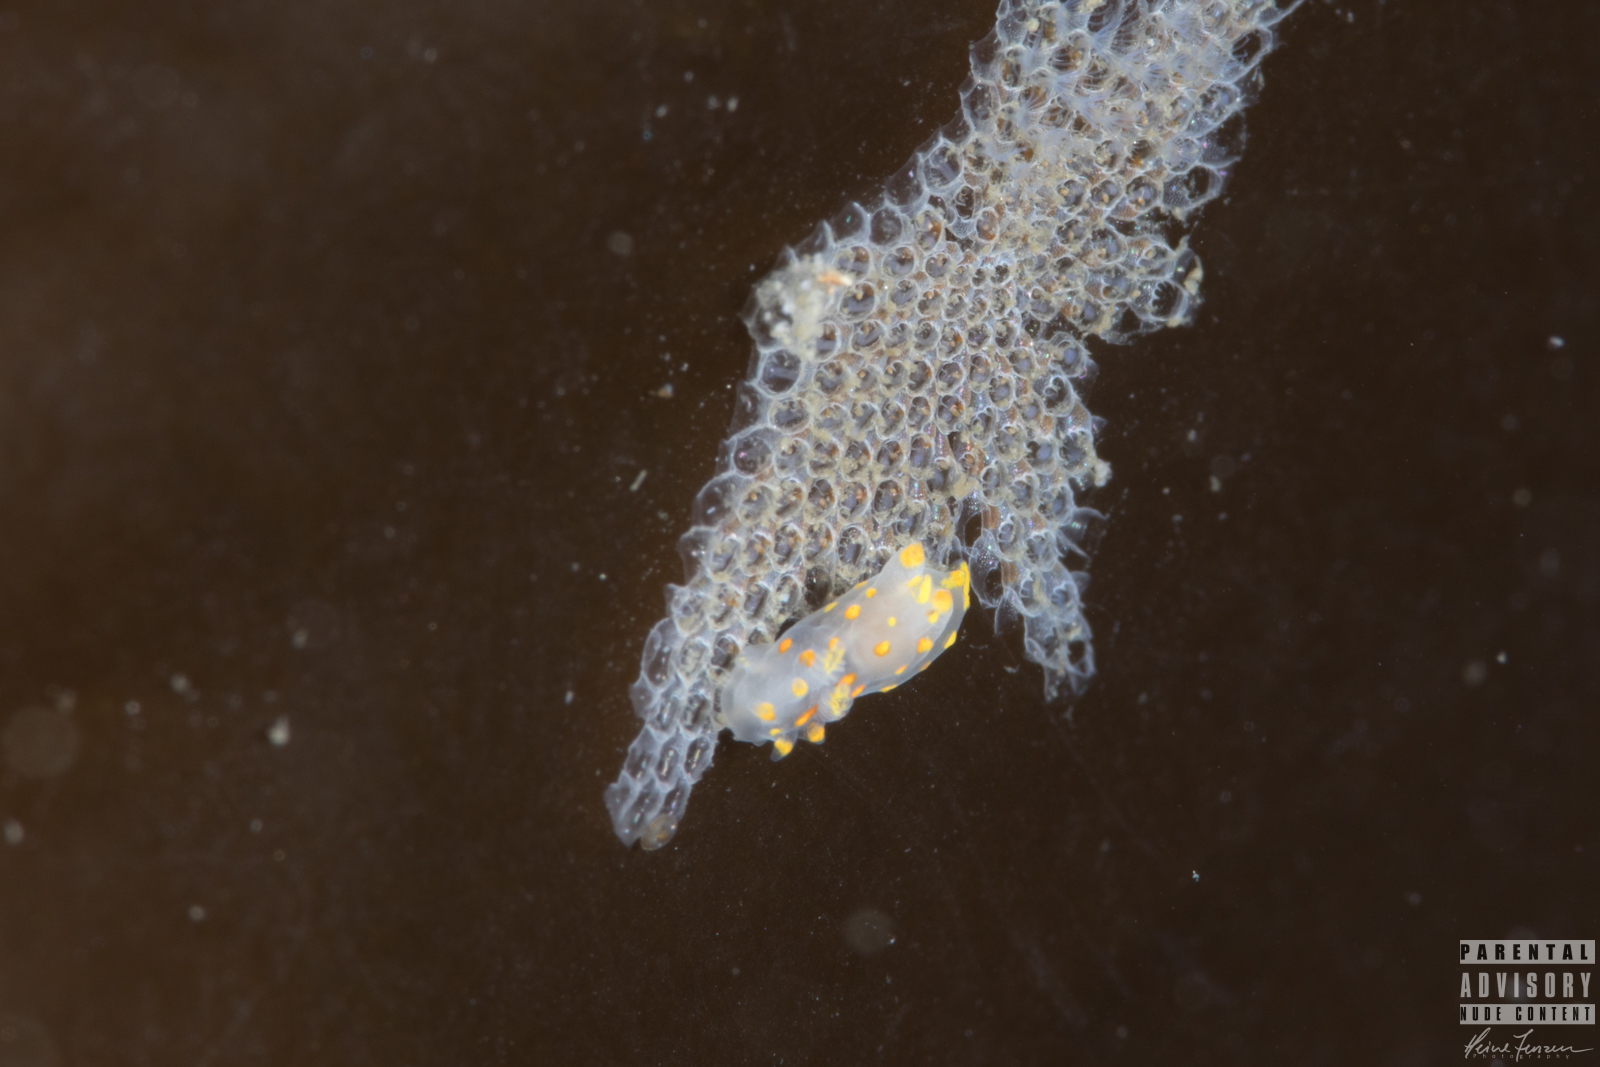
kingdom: Animalia
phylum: Mollusca
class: Gastropoda
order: Nudibranchia
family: Polyceridae
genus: Polycera
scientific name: Polycera quadrilineata
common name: Four-striped polycera
